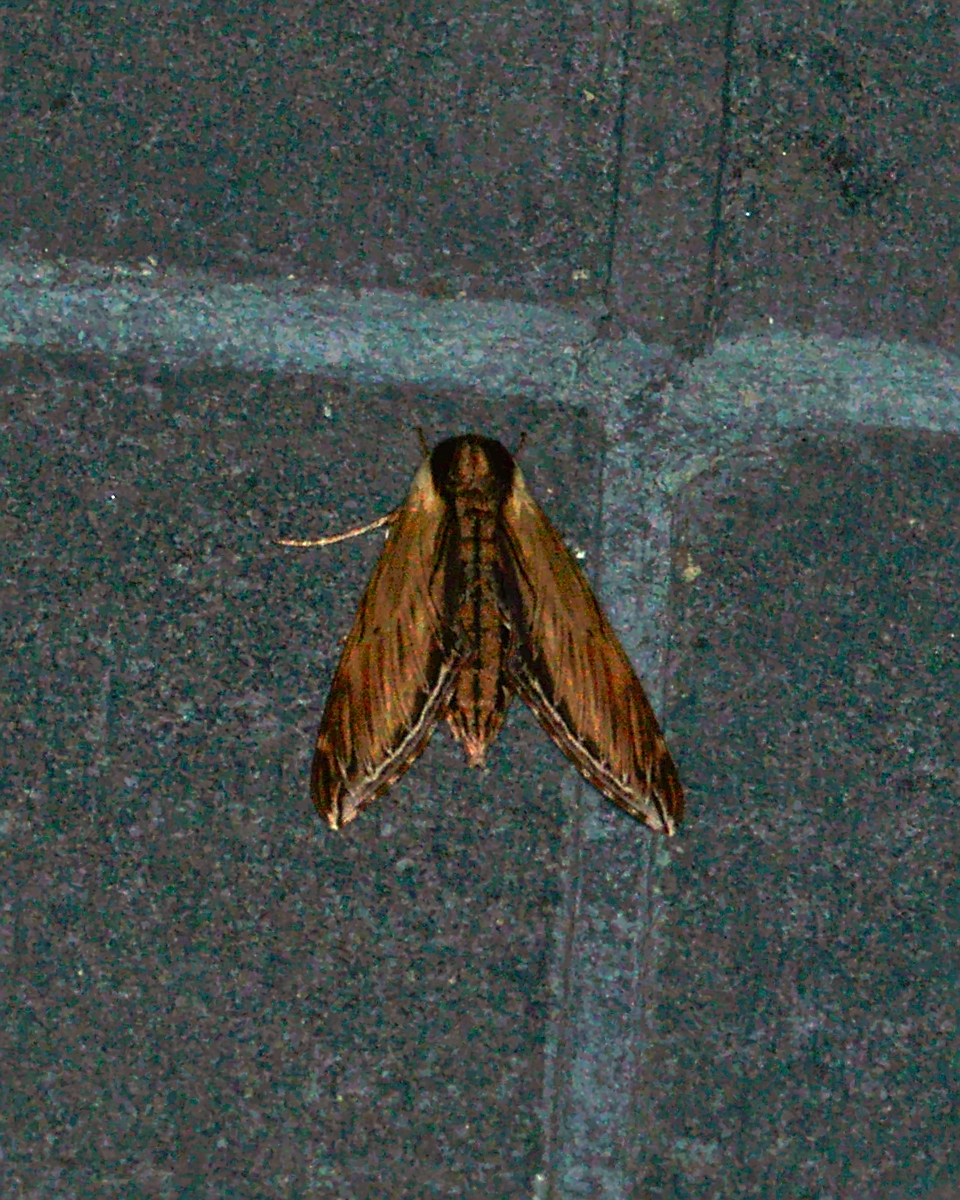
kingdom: Animalia
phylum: Arthropoda
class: Insecta
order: Lepidoptera
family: Sphingidae
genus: Sphinx
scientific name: Sphinx kalmiae
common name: Laurel sphinx
